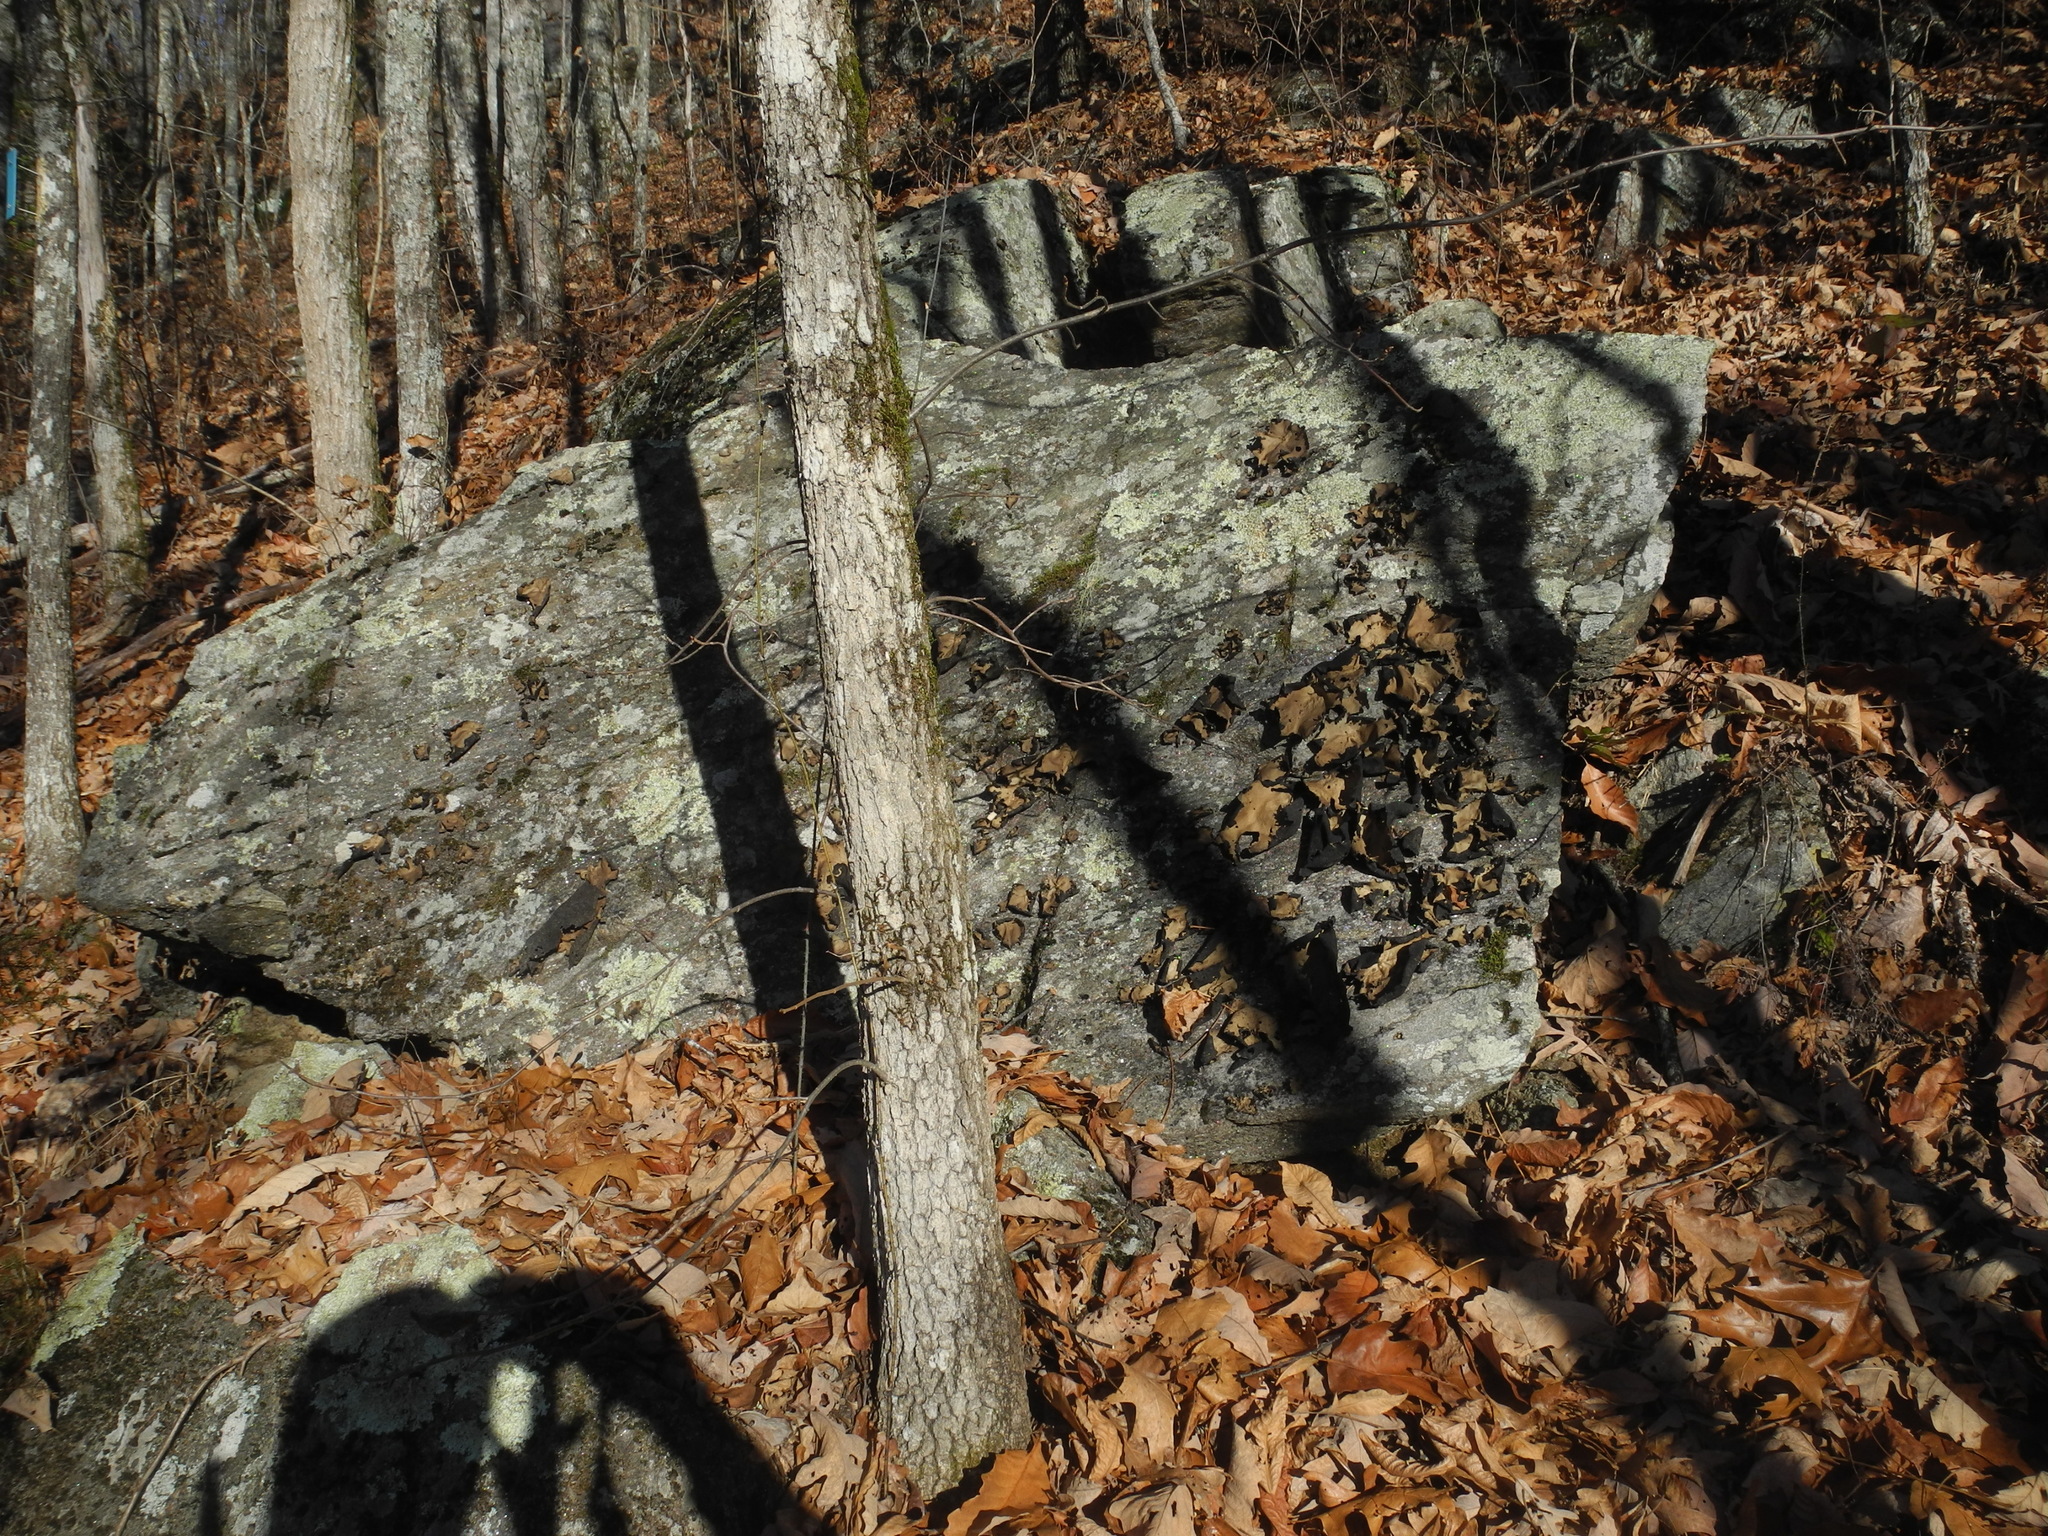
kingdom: Fungi
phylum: Ascomycota
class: Lecanoromycetes
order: Umbilicariales
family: Umbilicariaceae
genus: Umbilicaria
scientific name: Umbilicaria mammulata
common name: Smooth rock tripe
